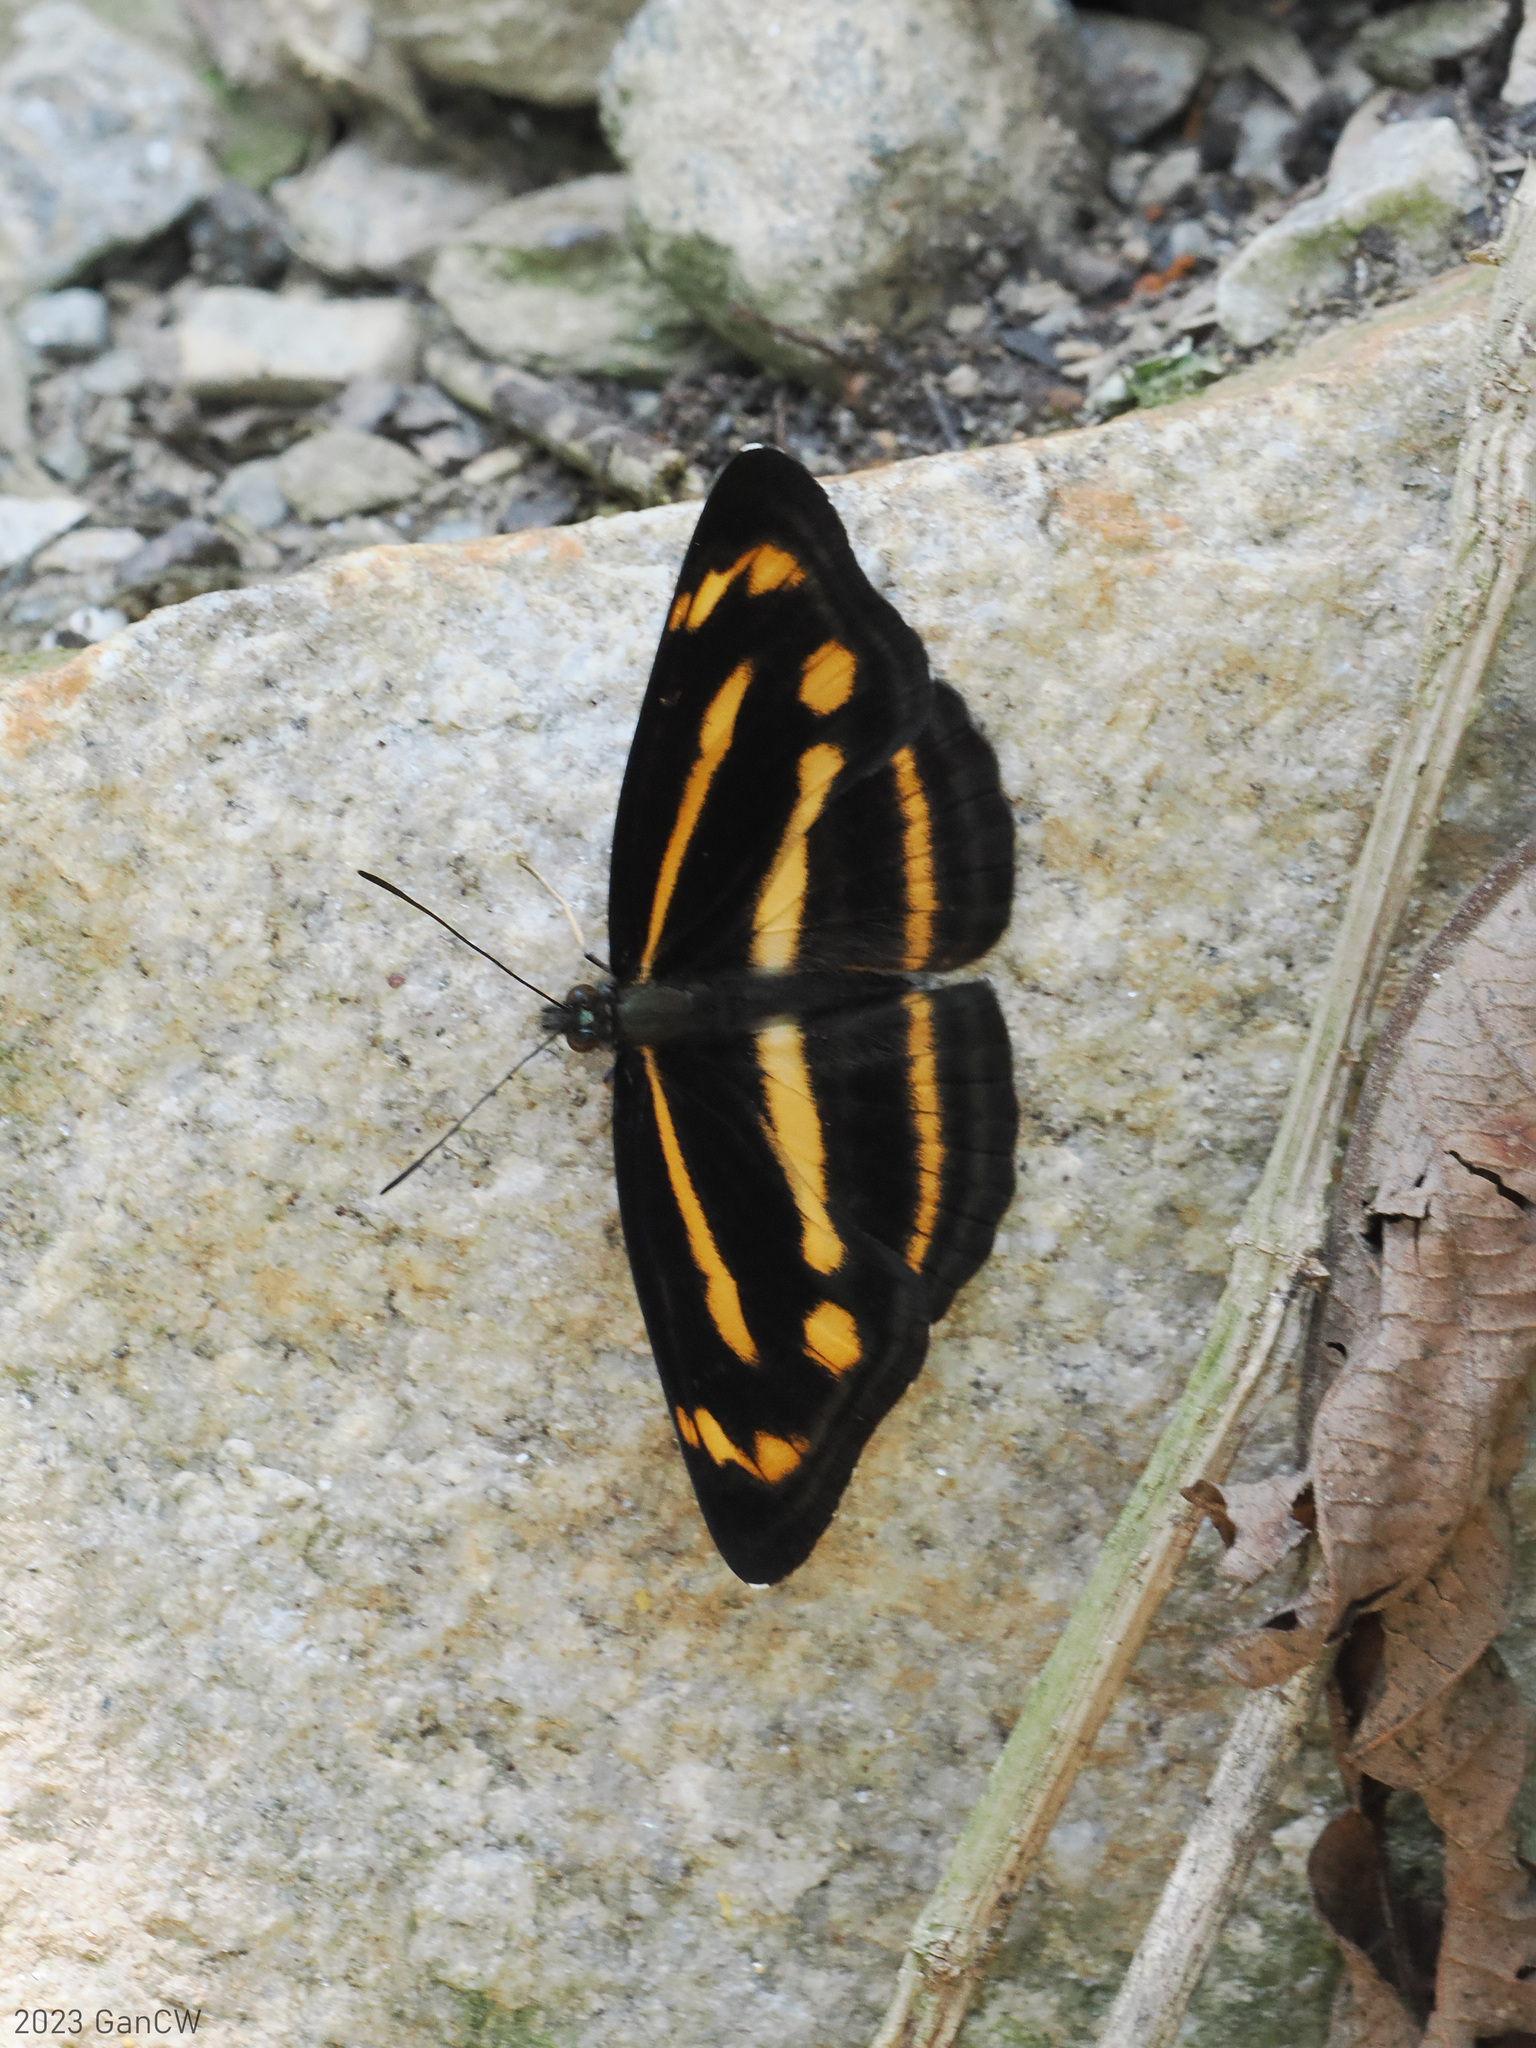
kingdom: Animalia
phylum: Arthropoda
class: Insecta
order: Lepidoptera
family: Nymphalidae
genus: Neptis
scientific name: Neptis ananta
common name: Yellow sailer
